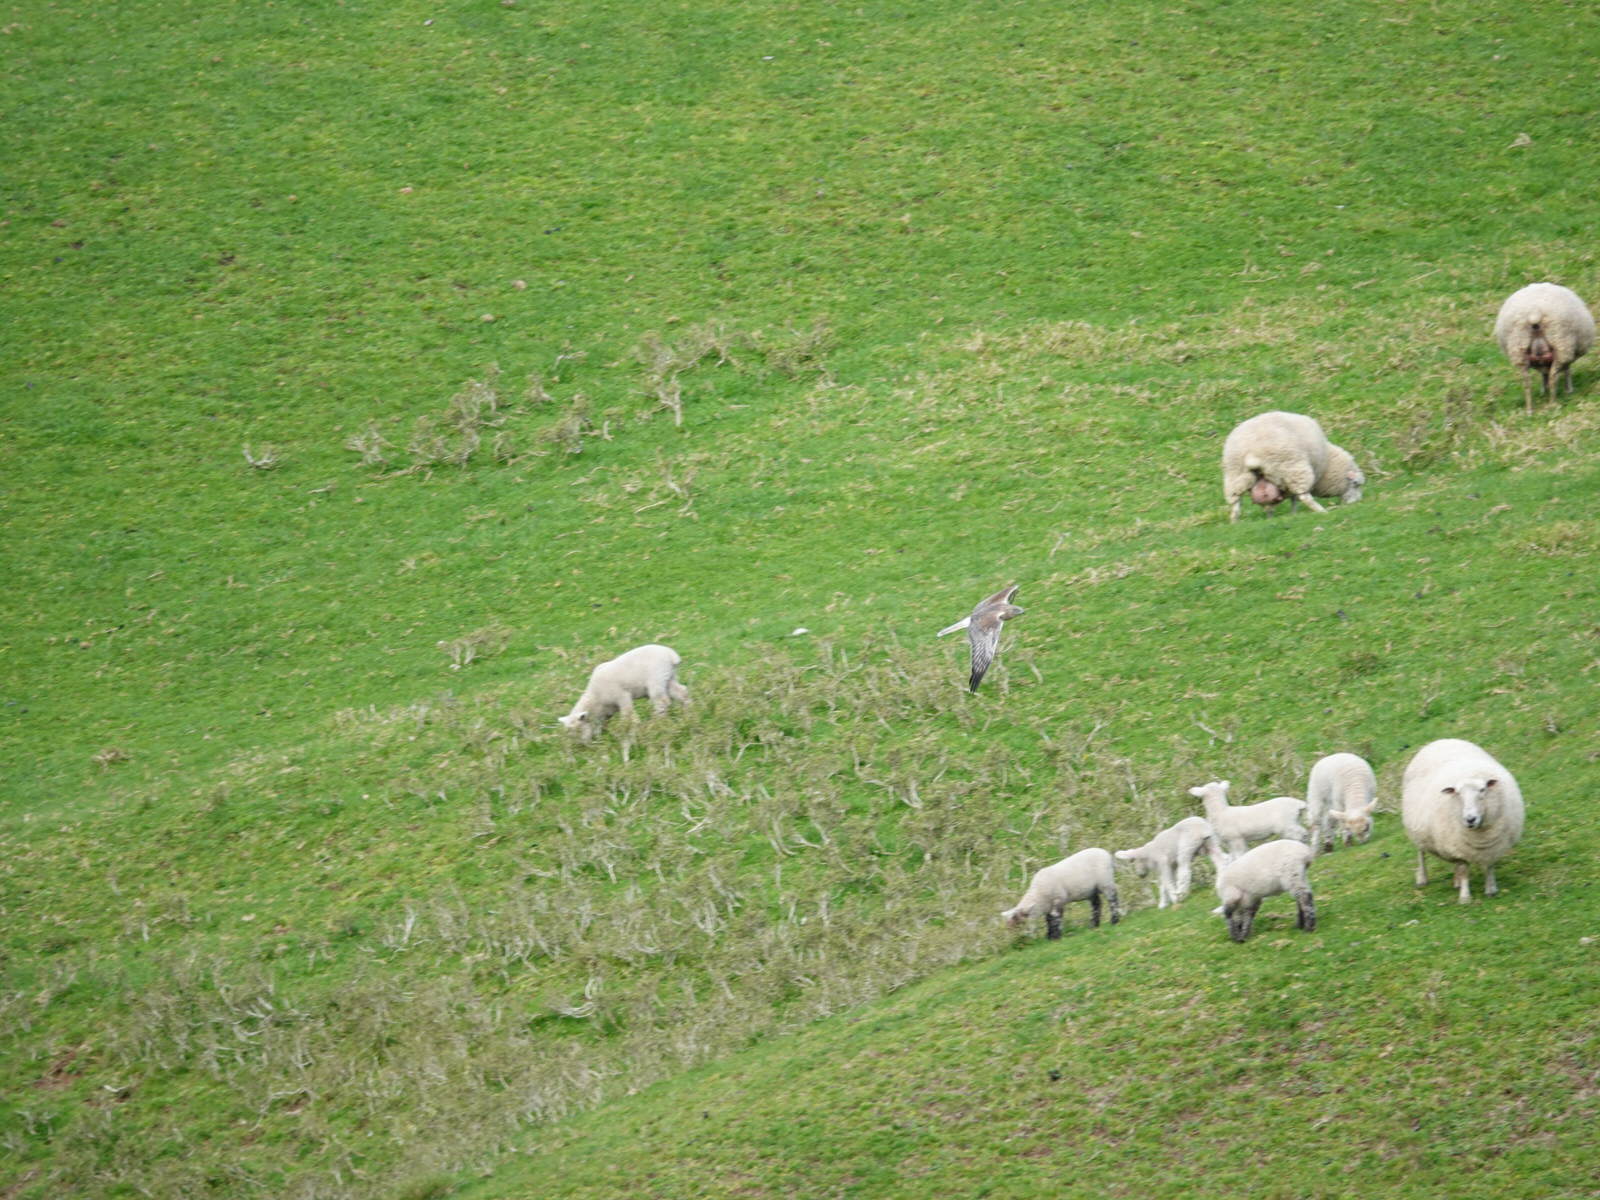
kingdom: Animalia
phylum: Chordata
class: Aves
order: Accipitriformes
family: Accipitridae
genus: Circus
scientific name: Circus approximans
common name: Swamp harrier
